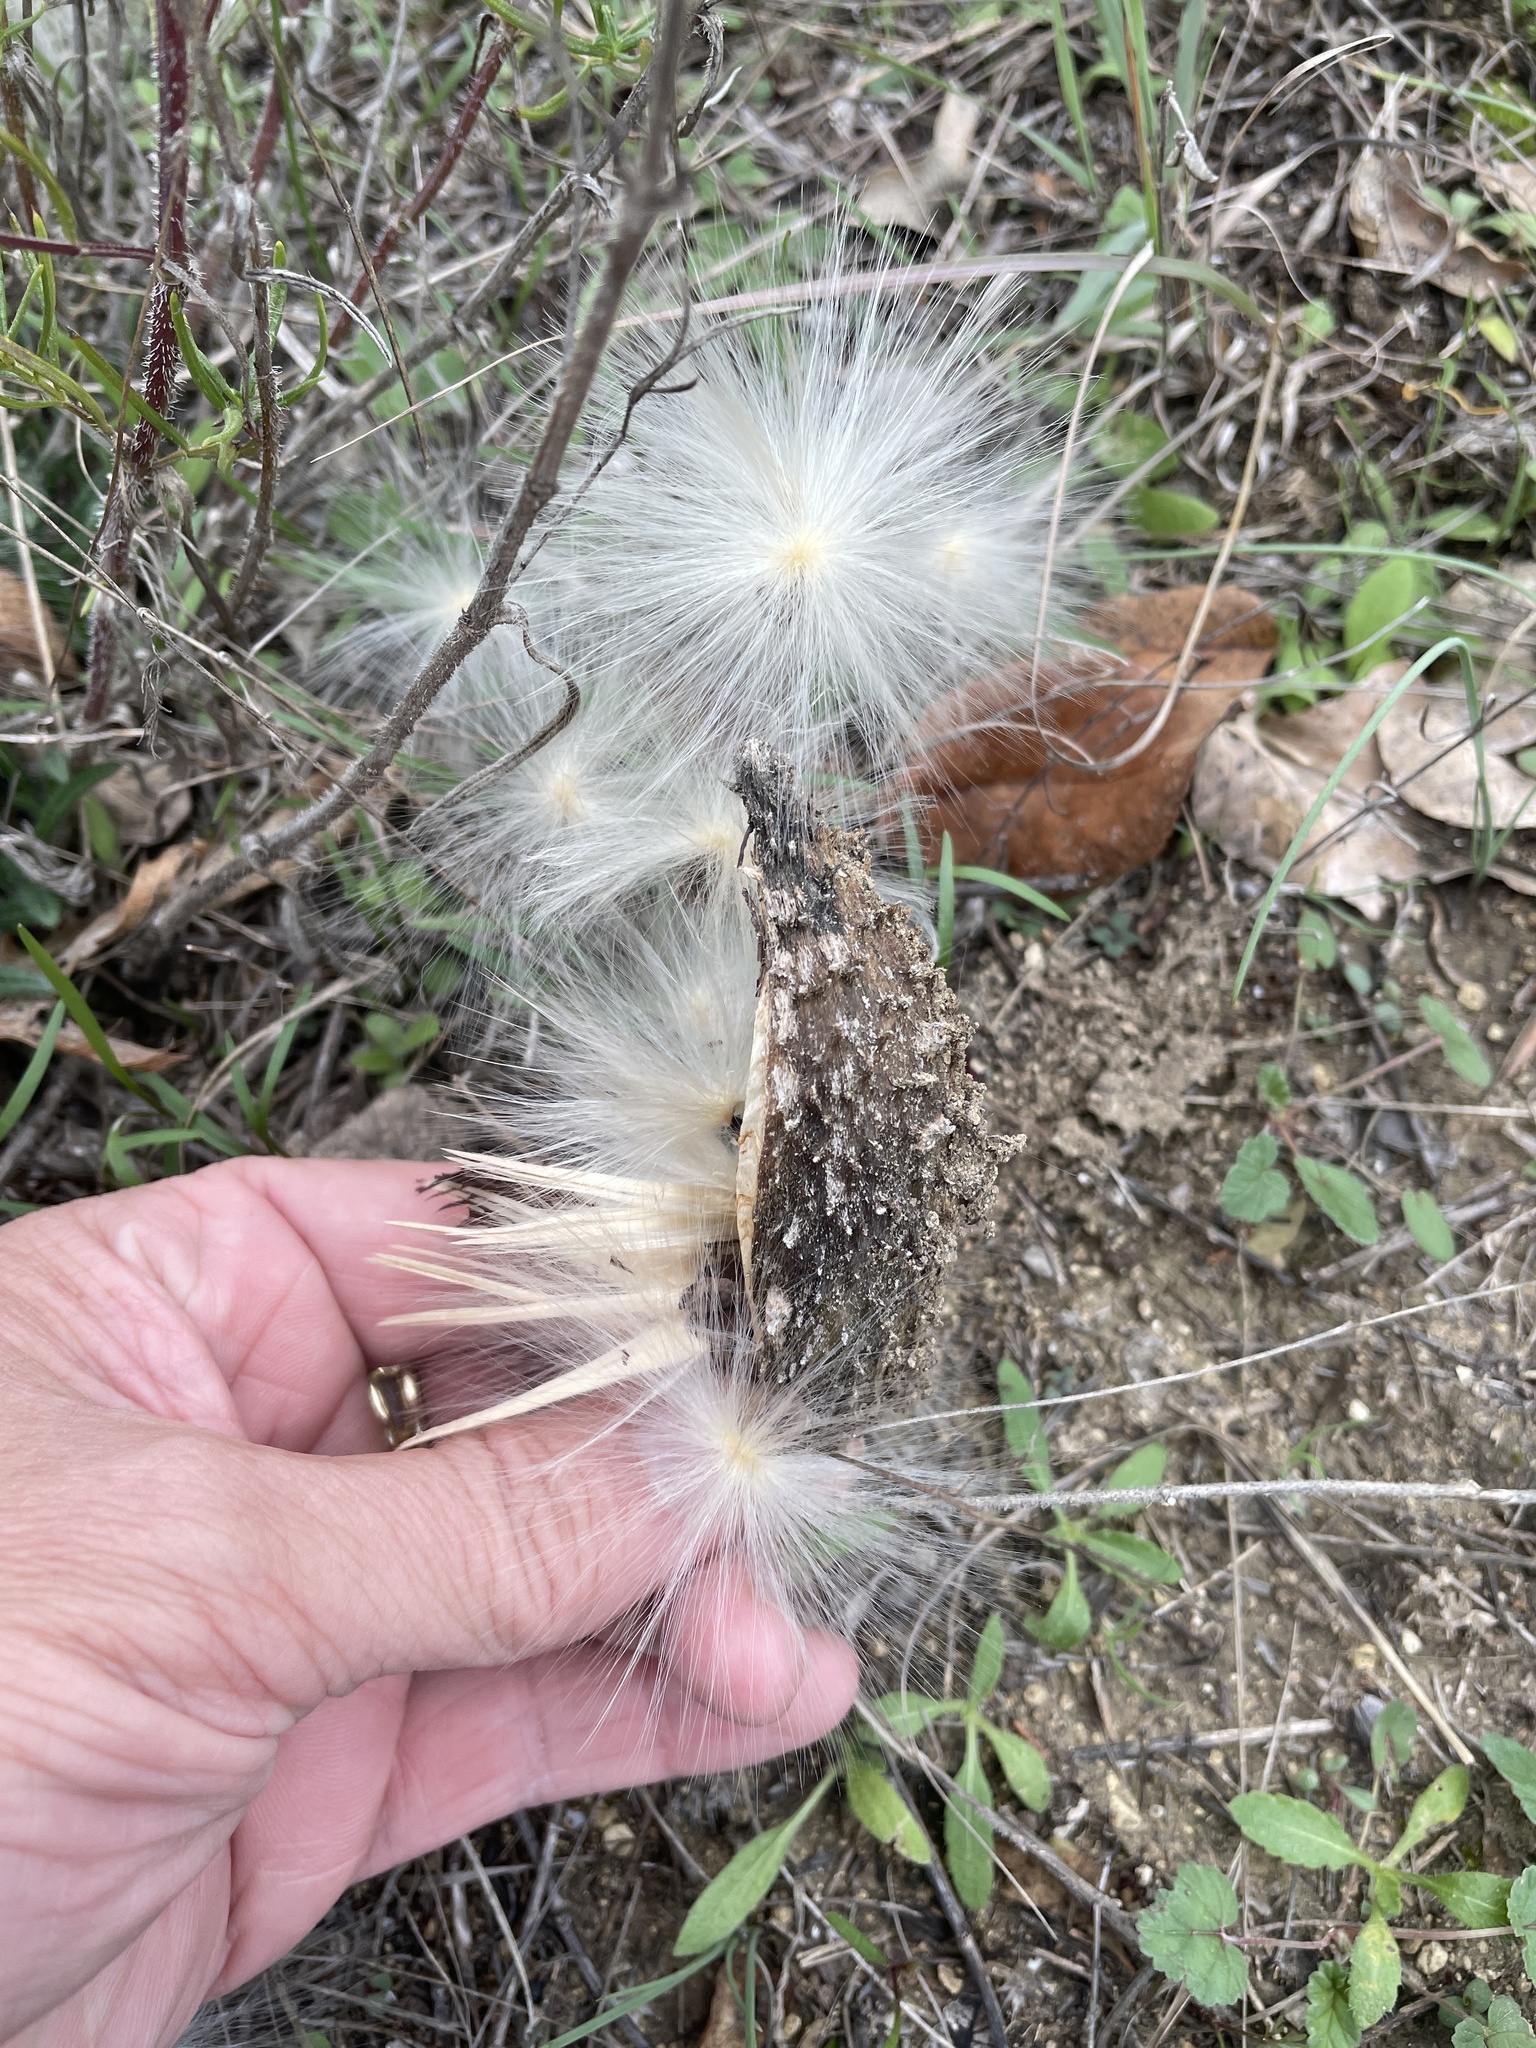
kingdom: Plantae
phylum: Tracheophyta
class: Magnoliopsida
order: Gentianales
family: Apocynaceae
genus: Chthamalia
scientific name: Chthamalia biflora
